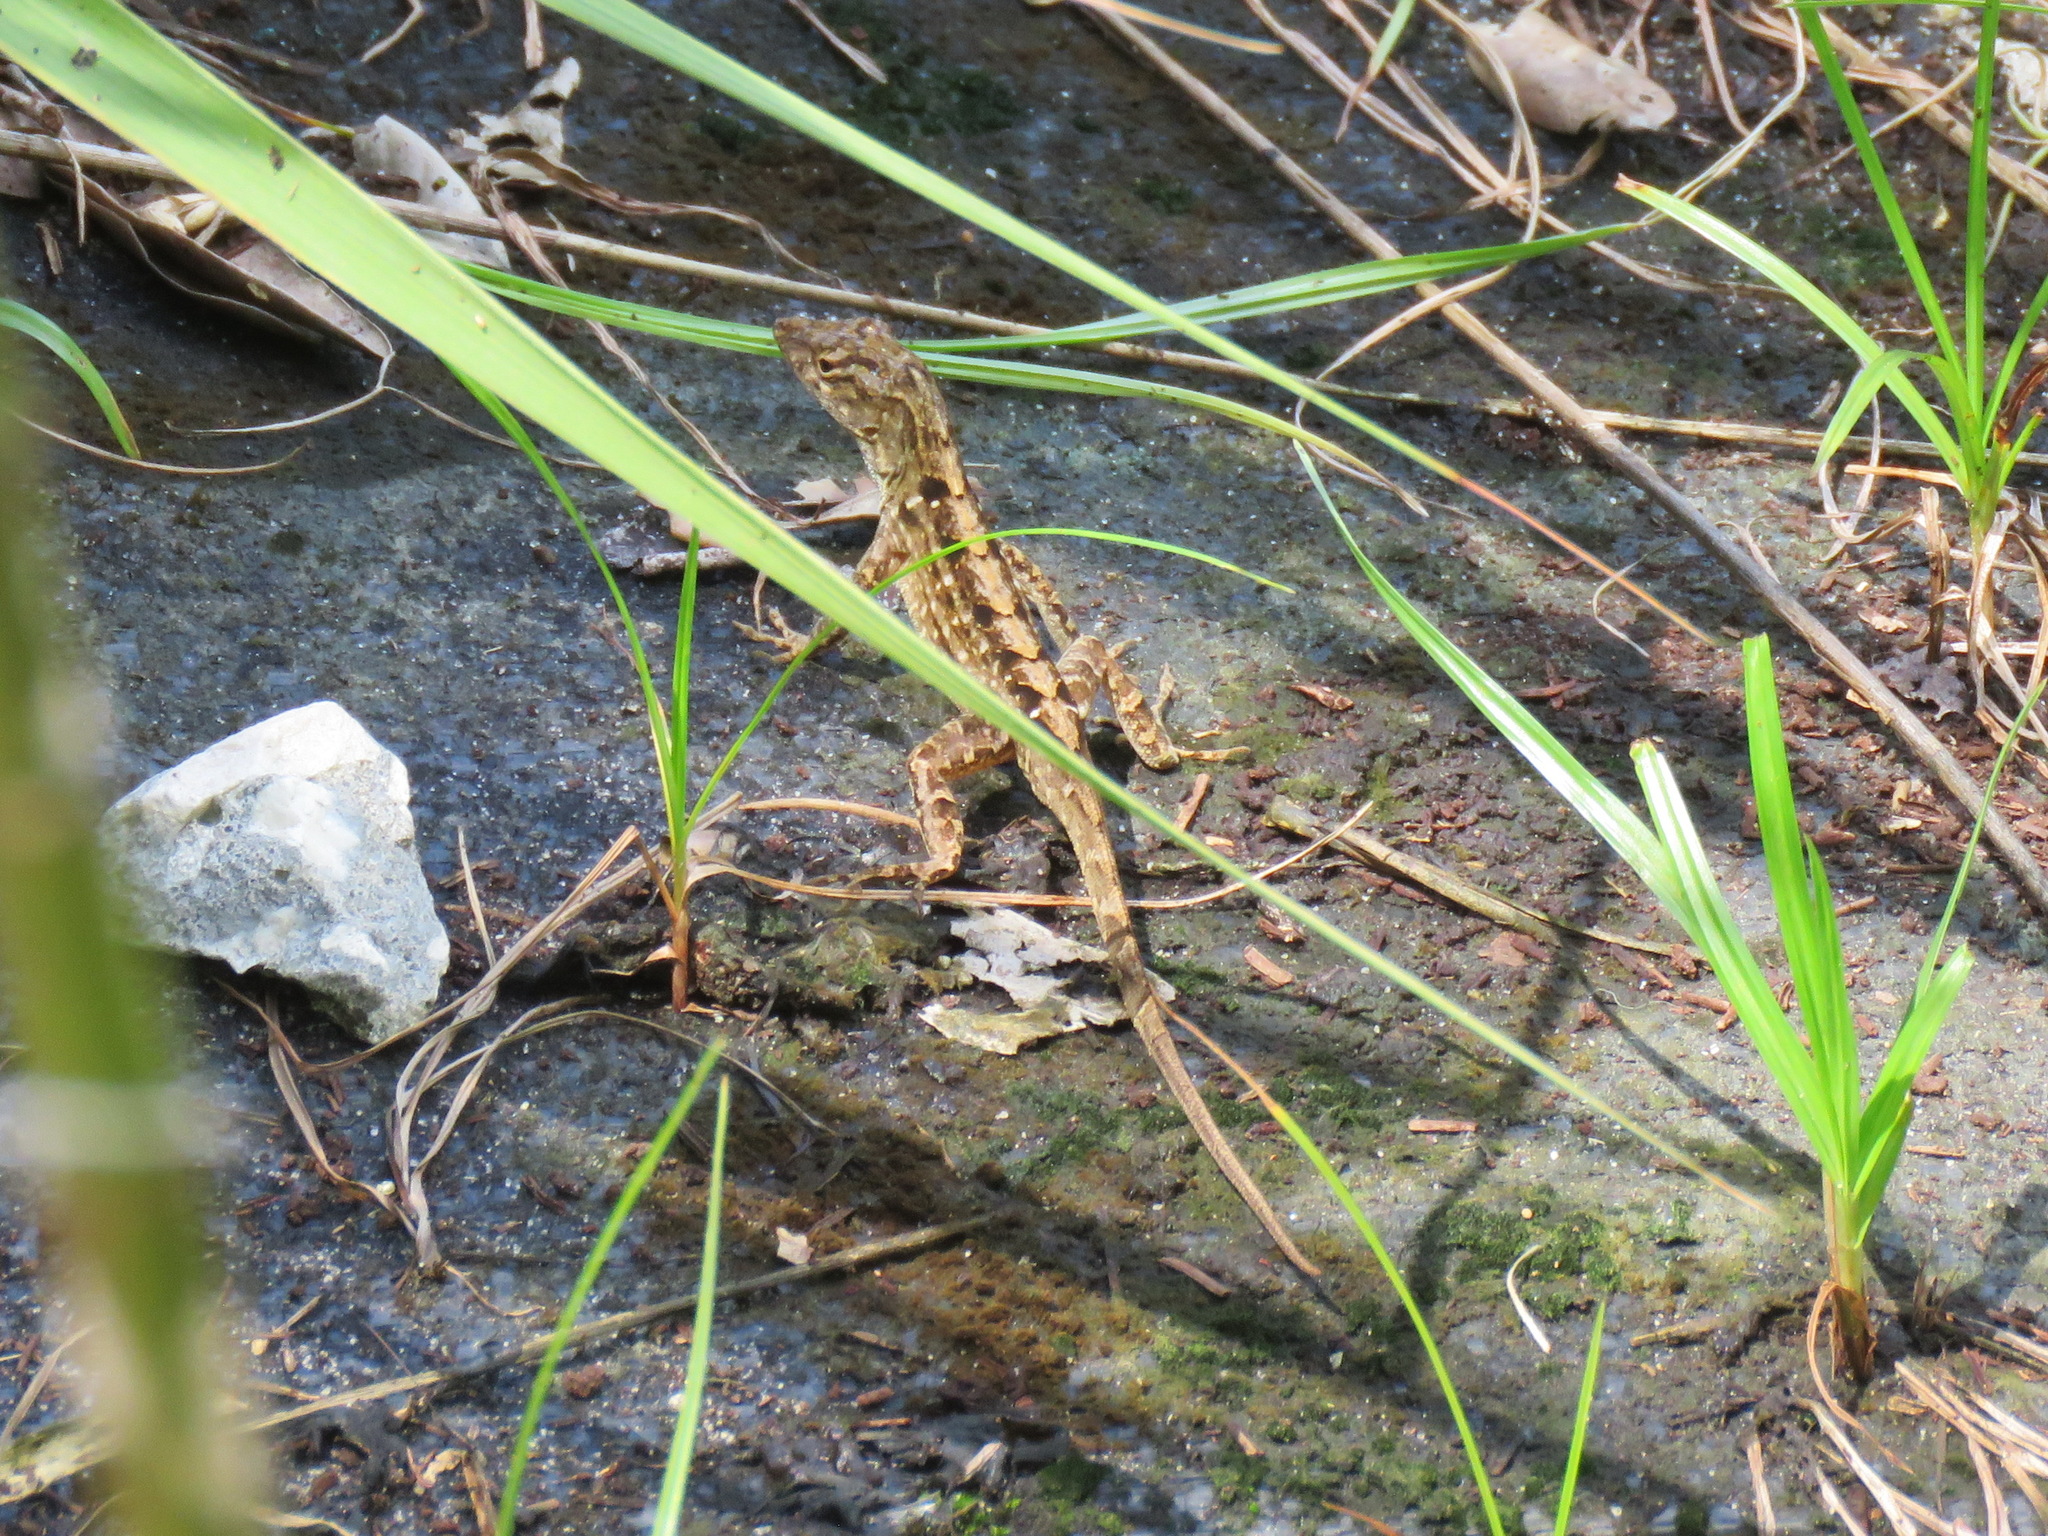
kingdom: Animalia
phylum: Chordata
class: Squamata
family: Dactyloidae
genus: Anolis
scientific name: Anolis sagrei
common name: Brown anole
